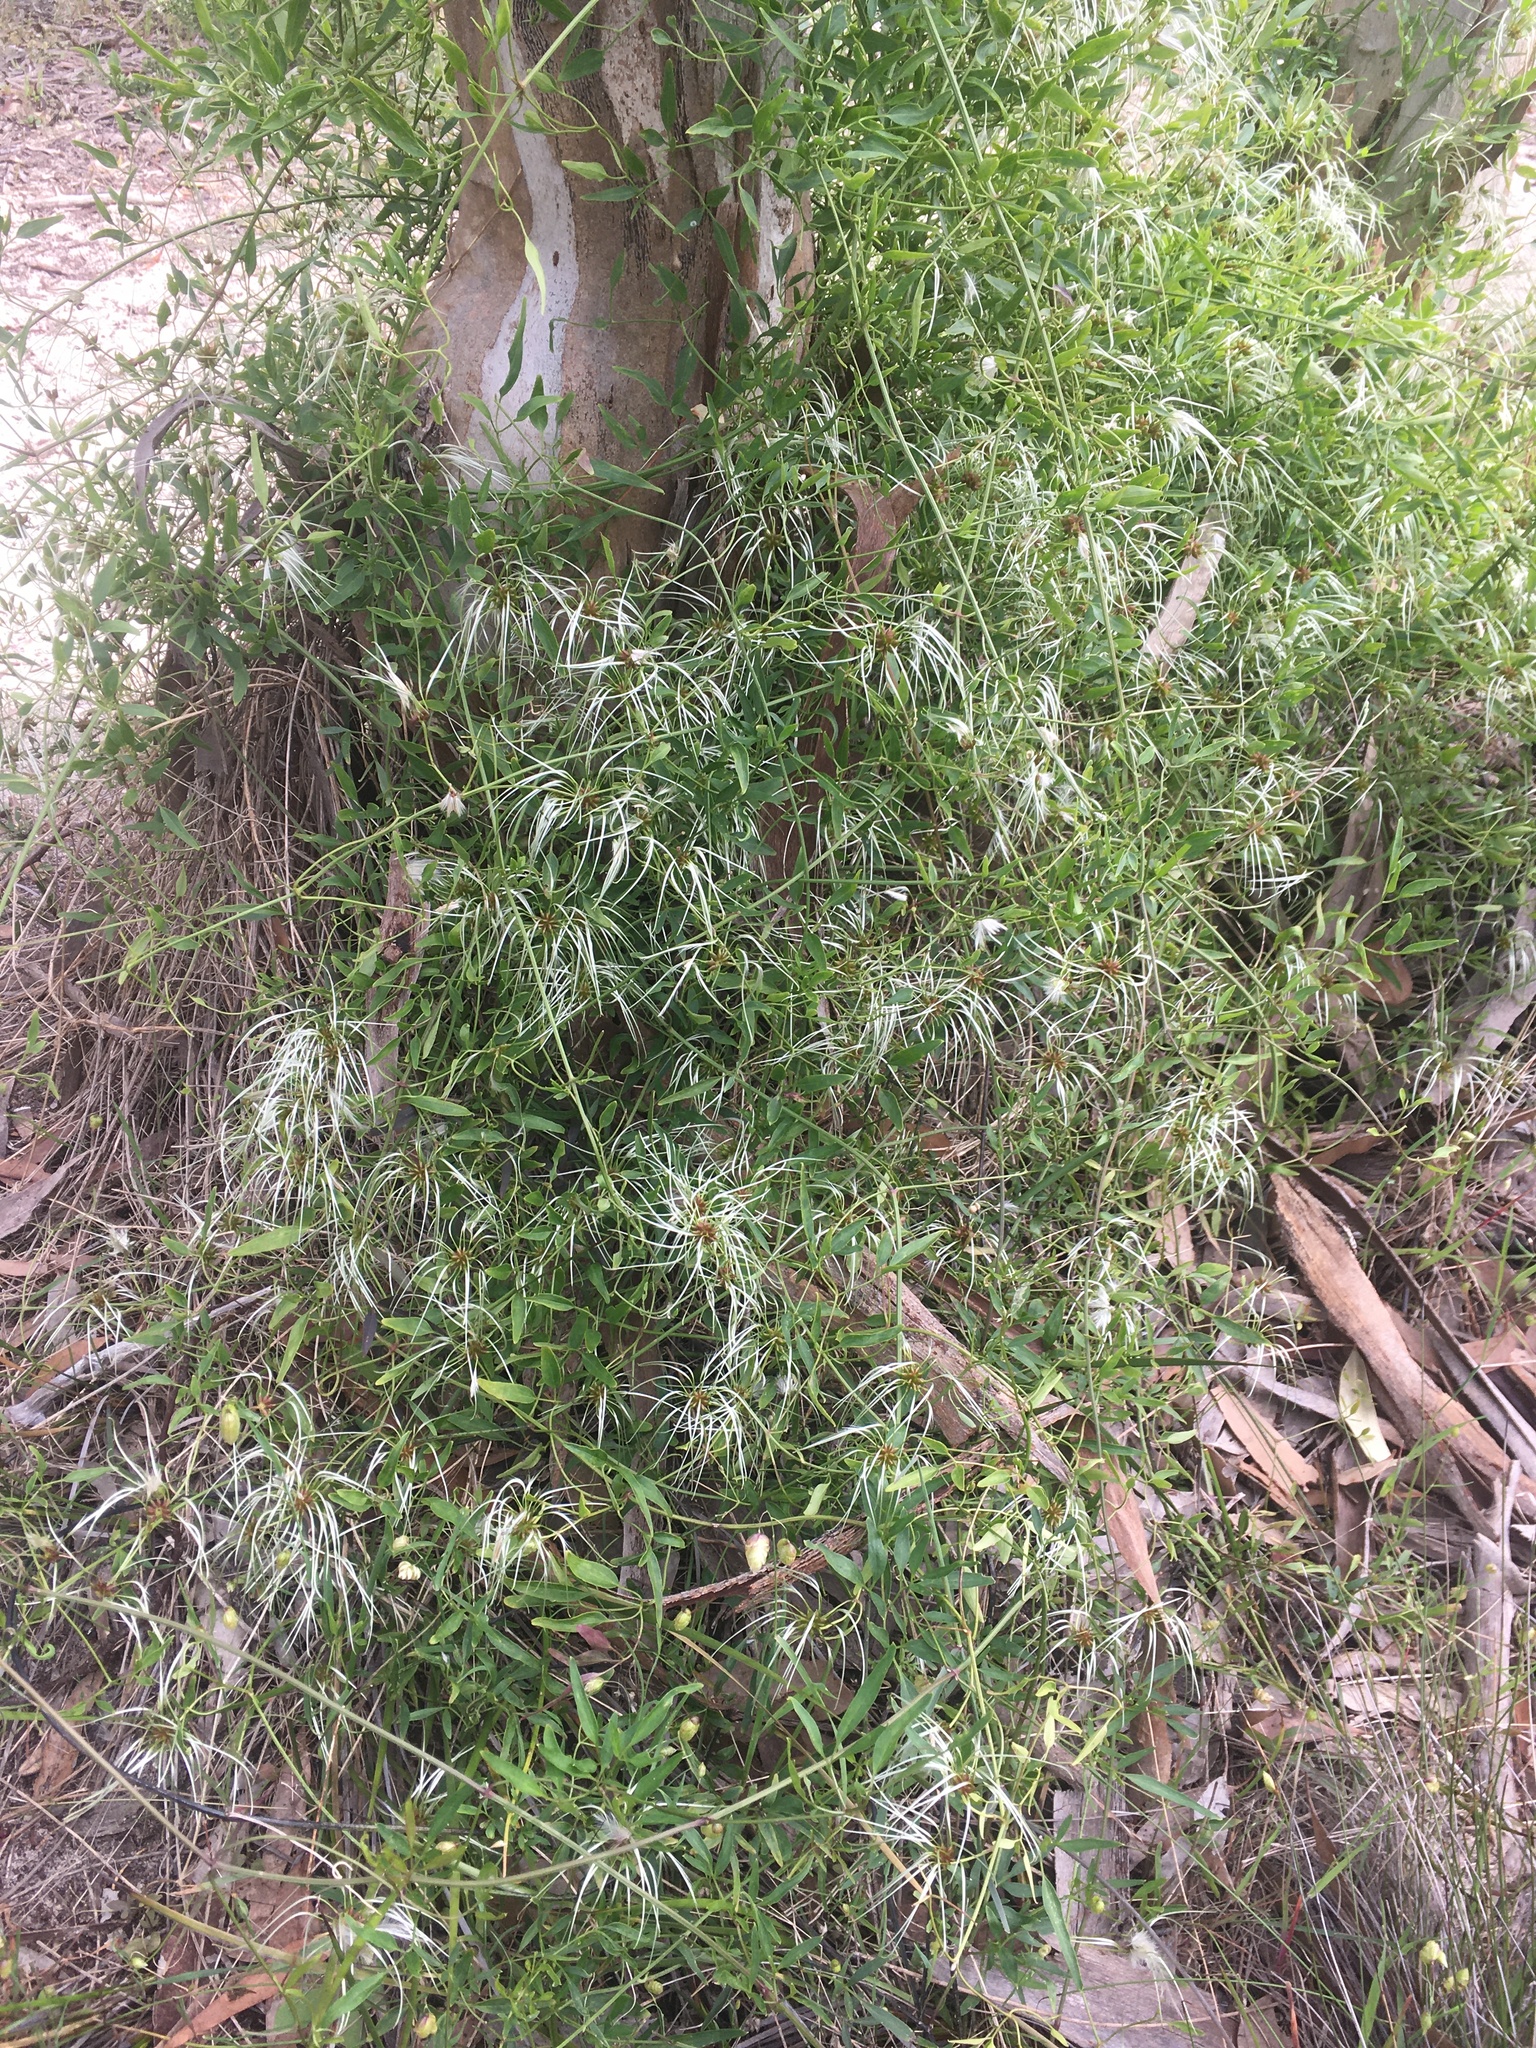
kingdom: Plantae
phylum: Tracheophyta
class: Magnoliopsida
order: Ranunculales
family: Ranunculaceae
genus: Clematis
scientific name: Clematis microphylla
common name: Headachevine
